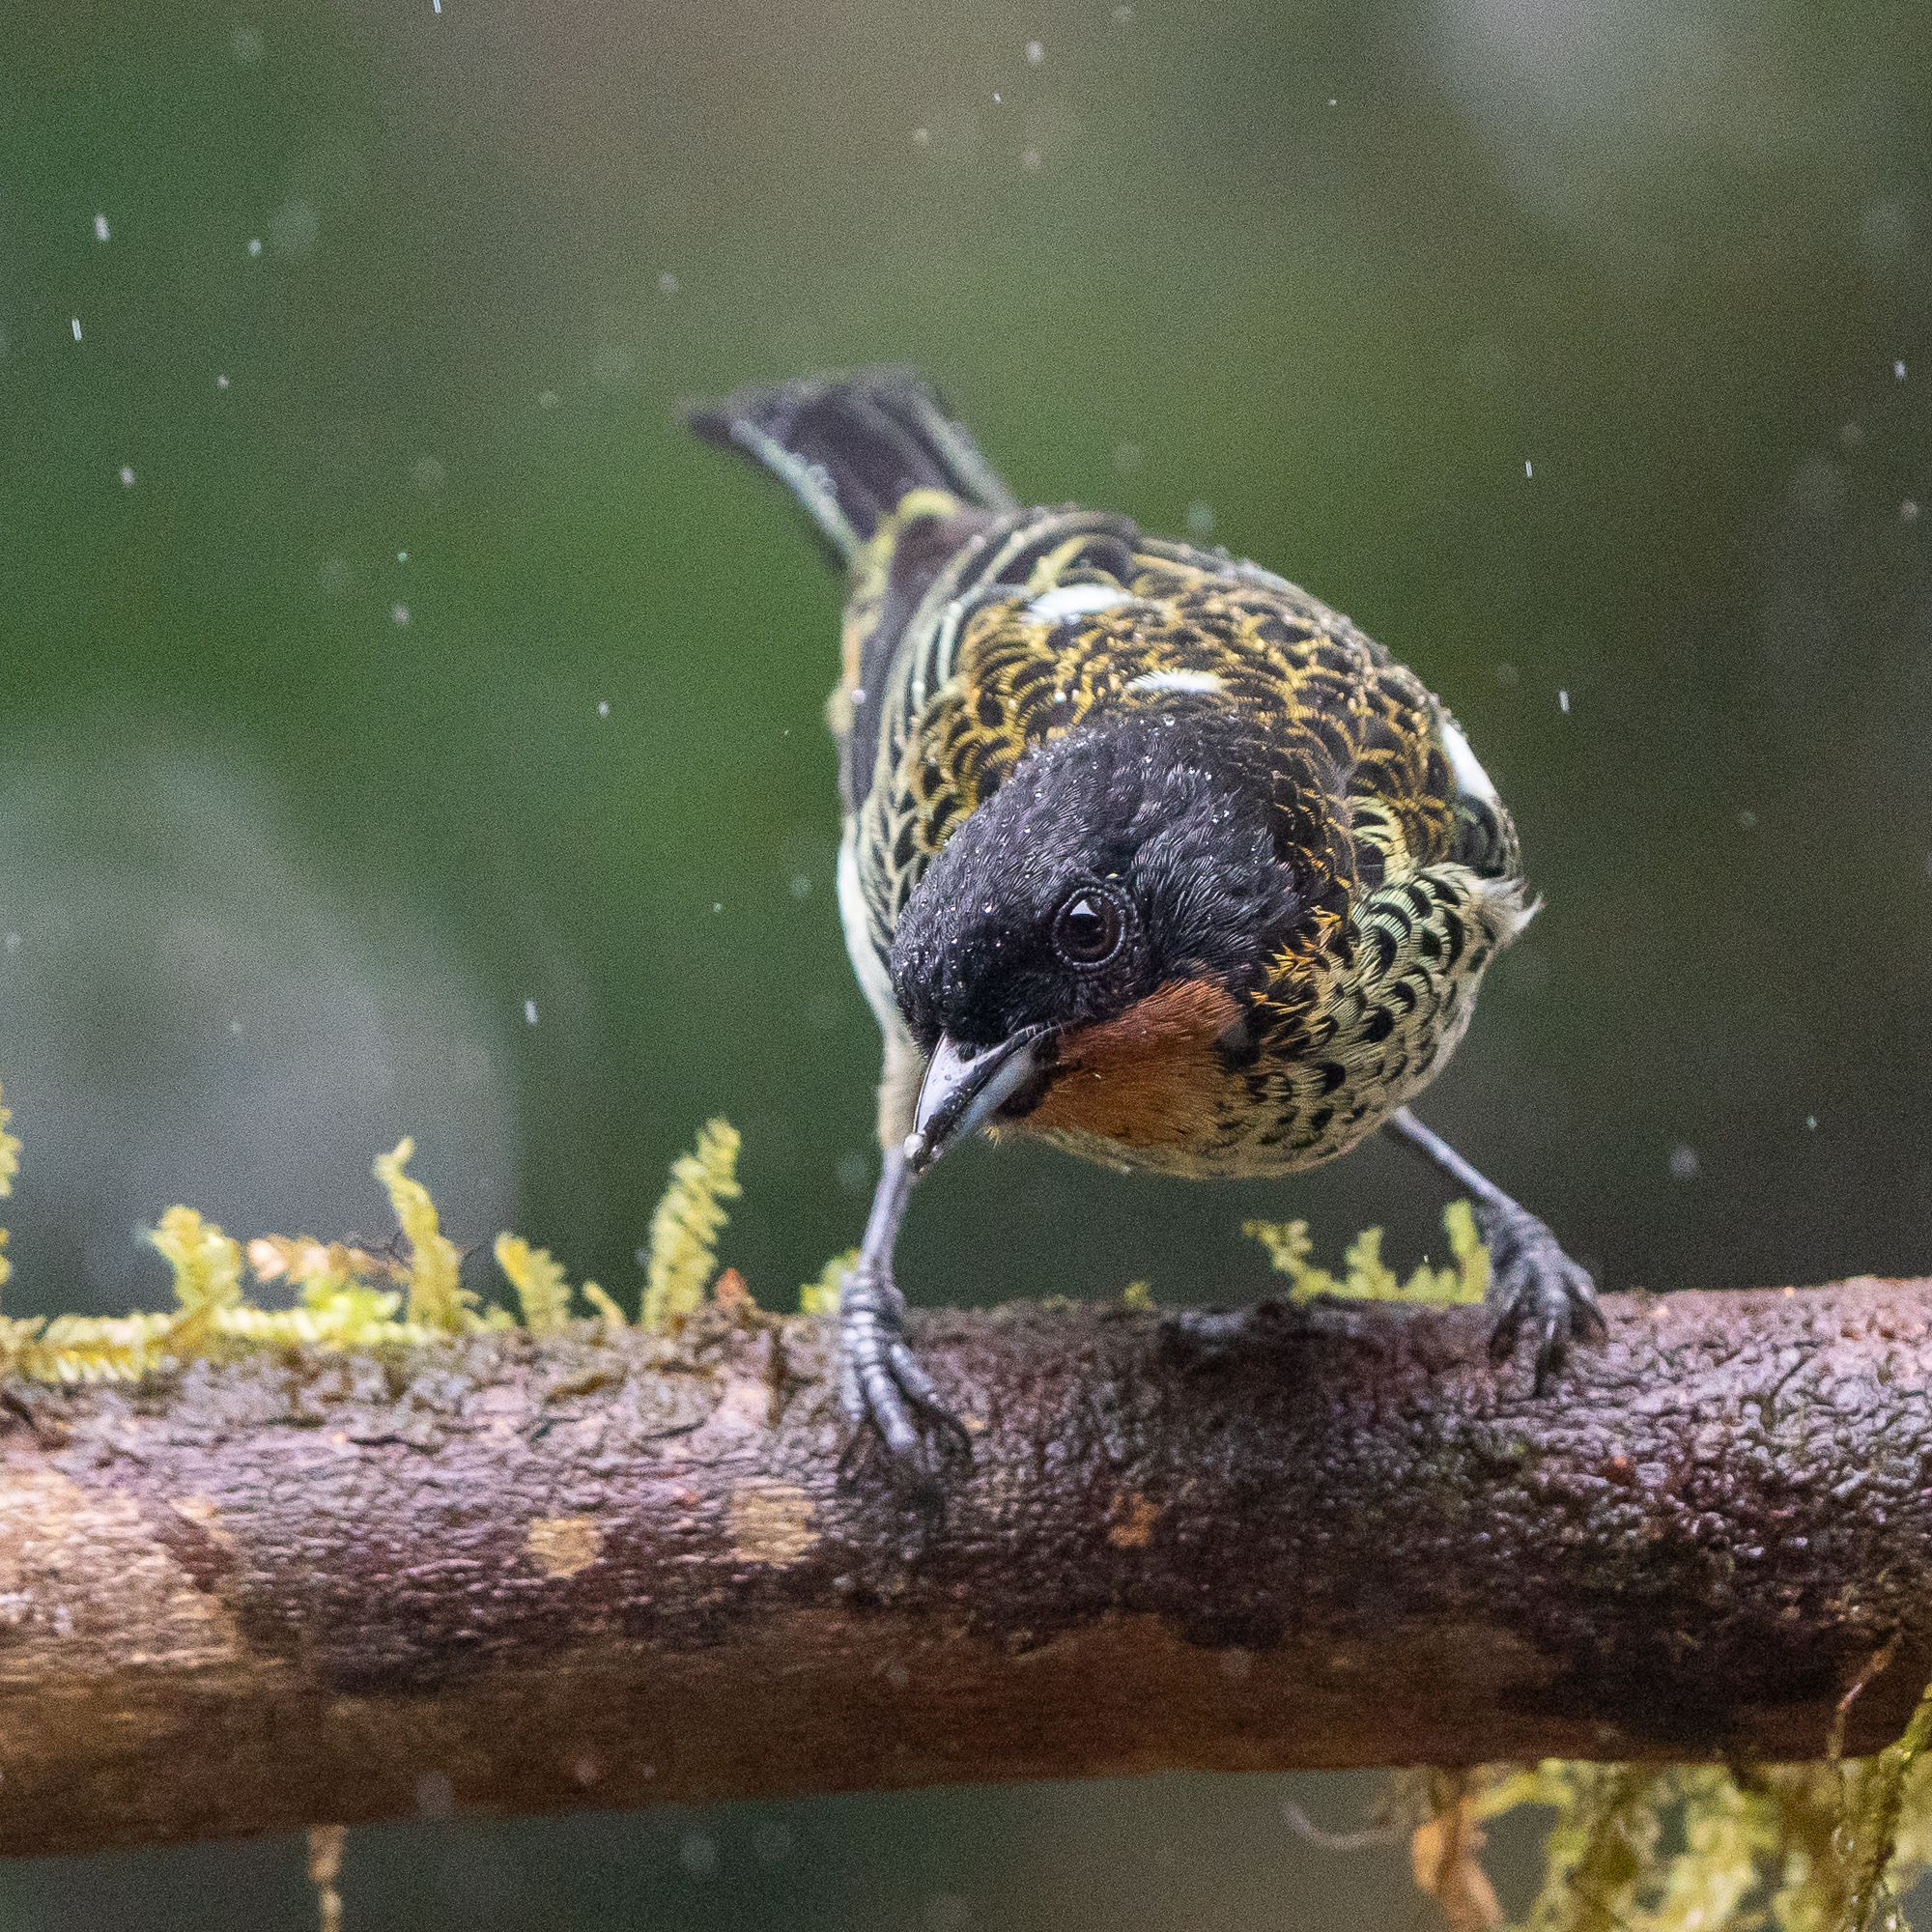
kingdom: Animalia
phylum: Chordata
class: Aves
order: Passeriformes
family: Thraupidae
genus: Ixothraupis
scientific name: Ixothraupis rufigula
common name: Rufous-throated tanager
